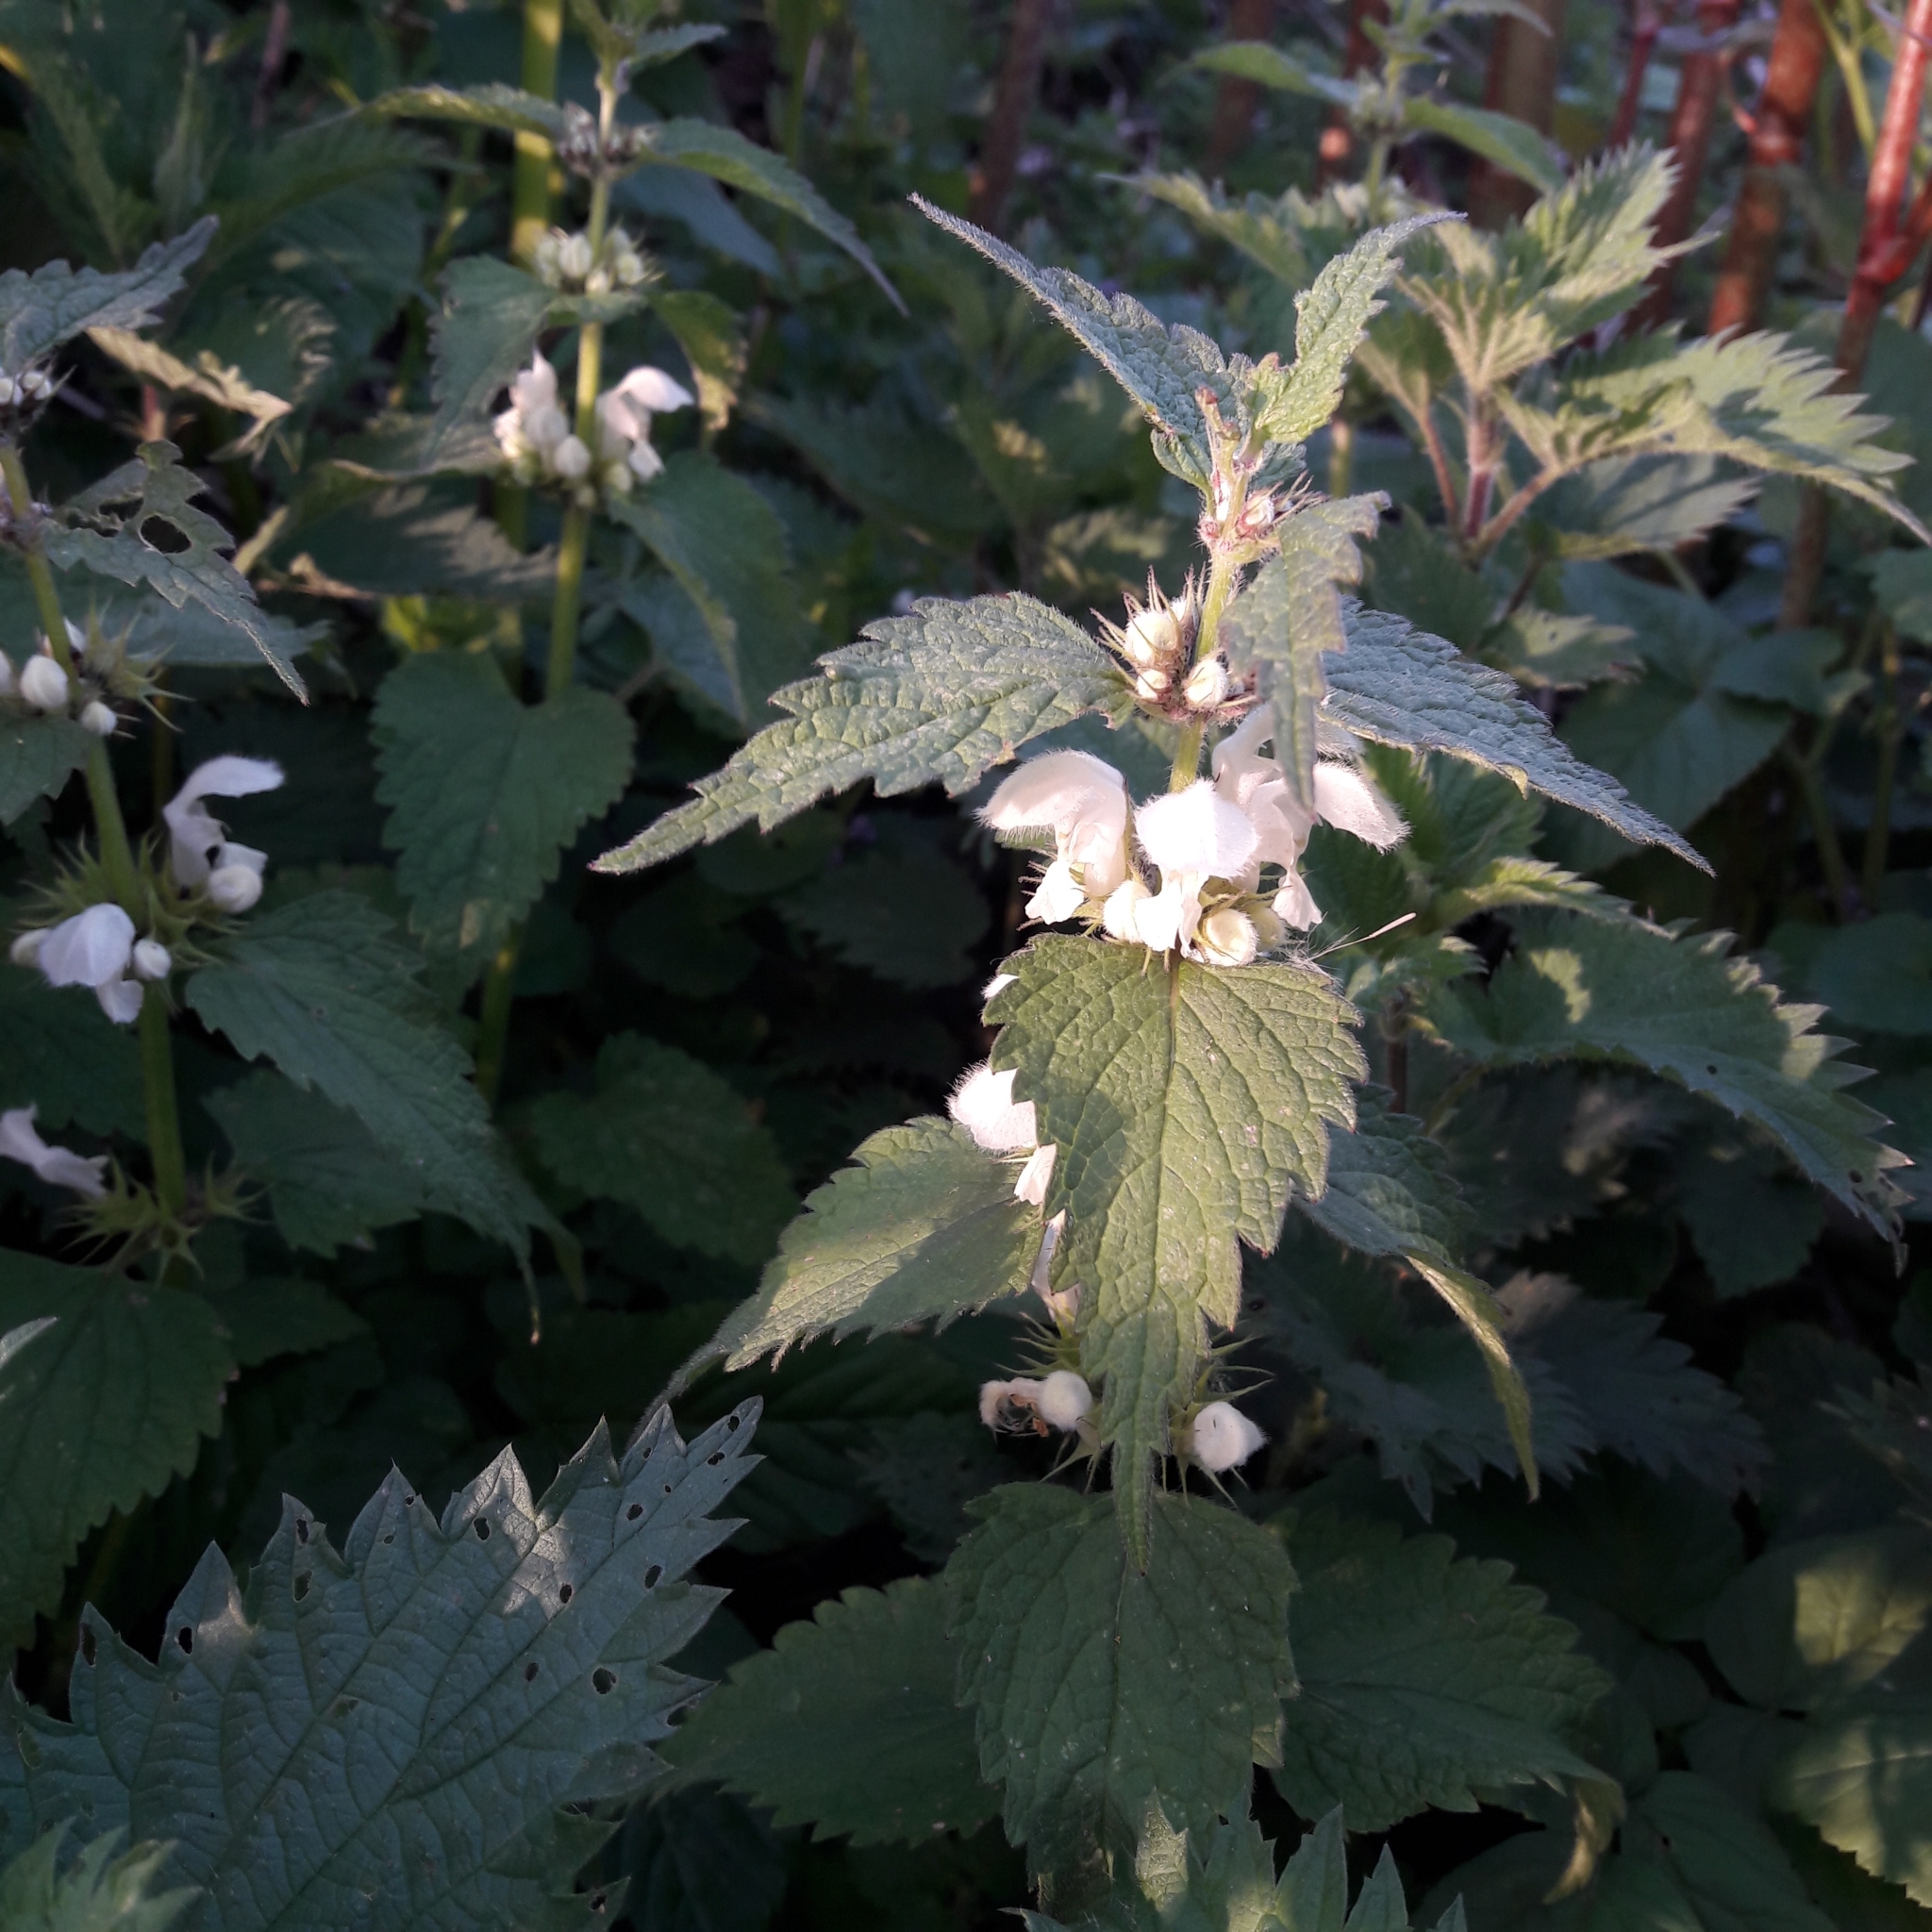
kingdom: Plantae
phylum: Tracheophyta
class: Magnoliopsida
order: Lamiales
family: Lamiaceae
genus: Lamium
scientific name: Lamium album
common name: White dead-nettle
